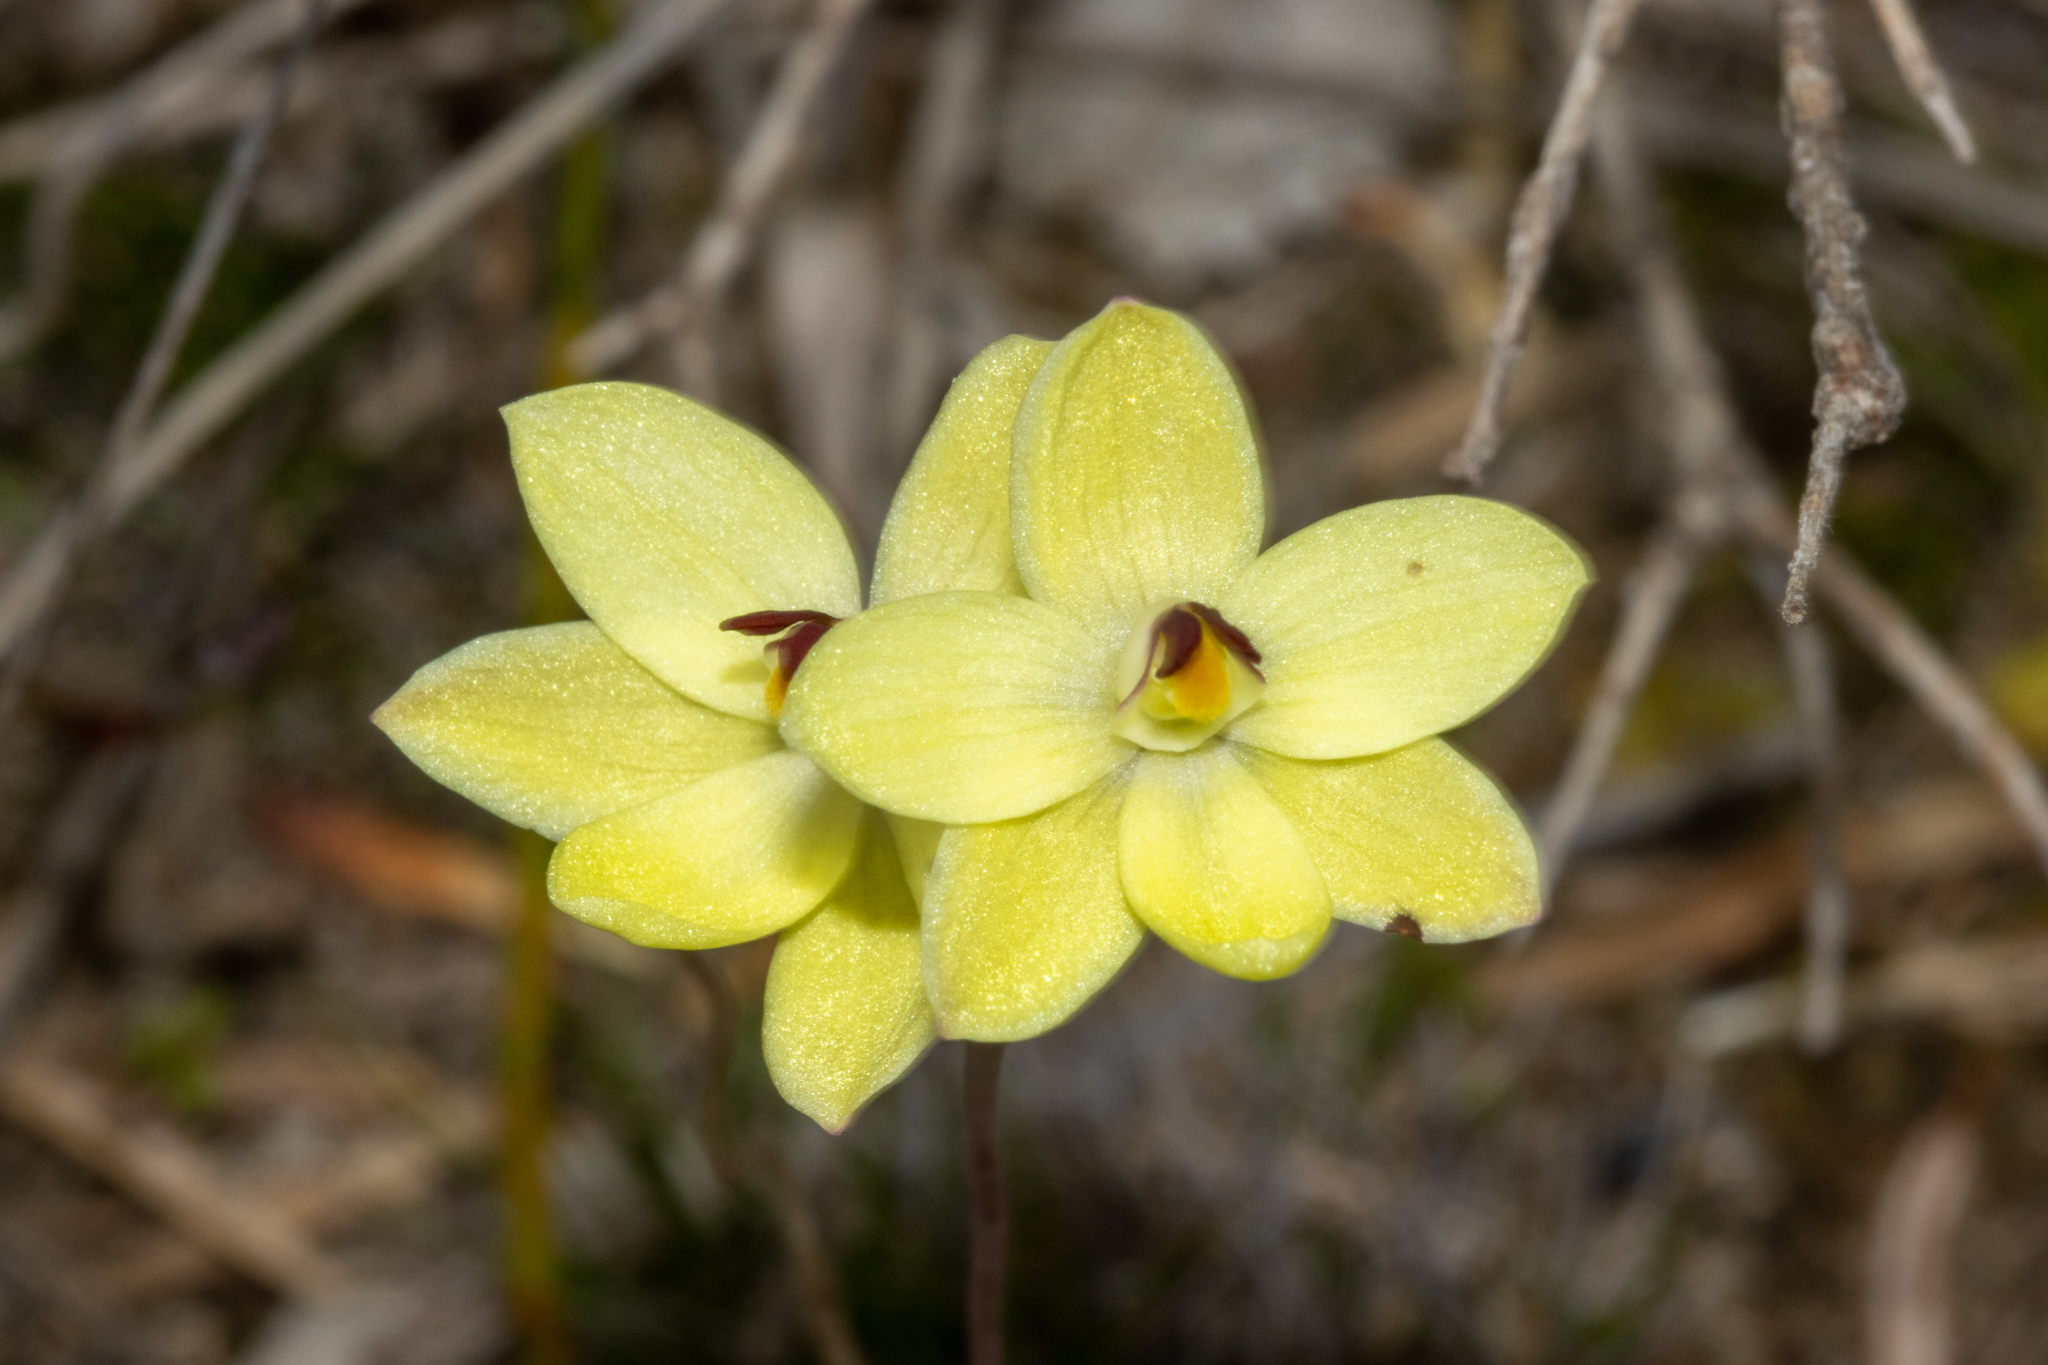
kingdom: Plantae
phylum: Tracheophyta
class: Liliopsida
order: Asparagales
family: Orchidaceae
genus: Thelymitra
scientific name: Thelymitra antennifera
